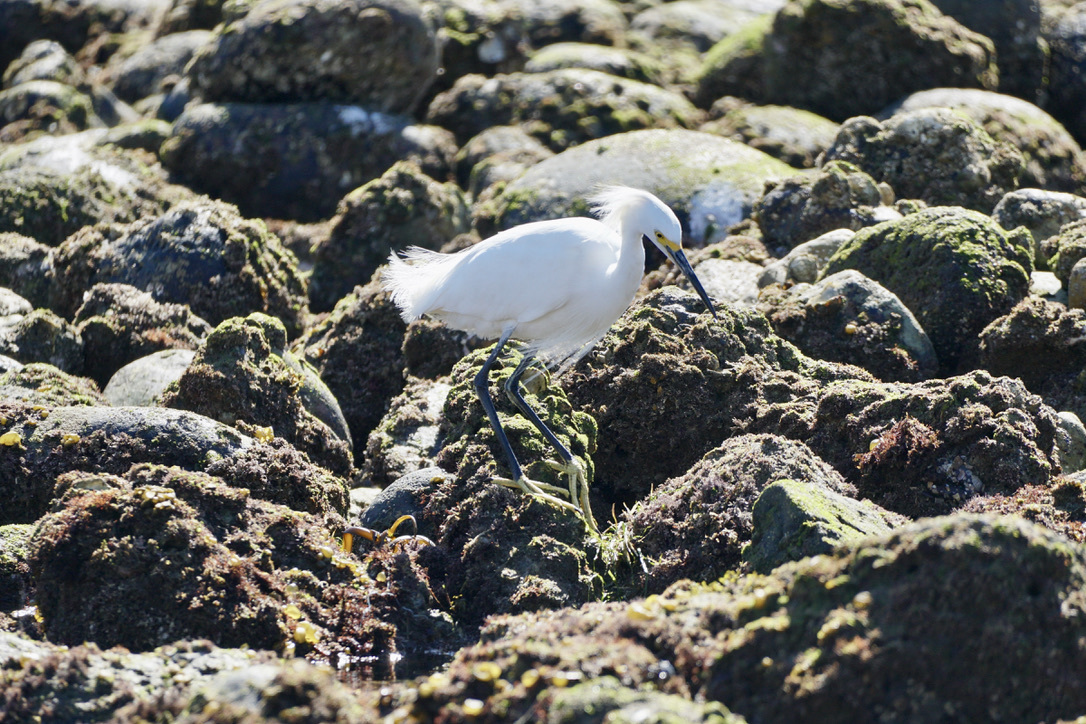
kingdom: Animalia
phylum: Chordata
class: Aves
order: Pelecaniformes
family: Ardeidae
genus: Egretta
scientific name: Egretta thula
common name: Snowy egret
